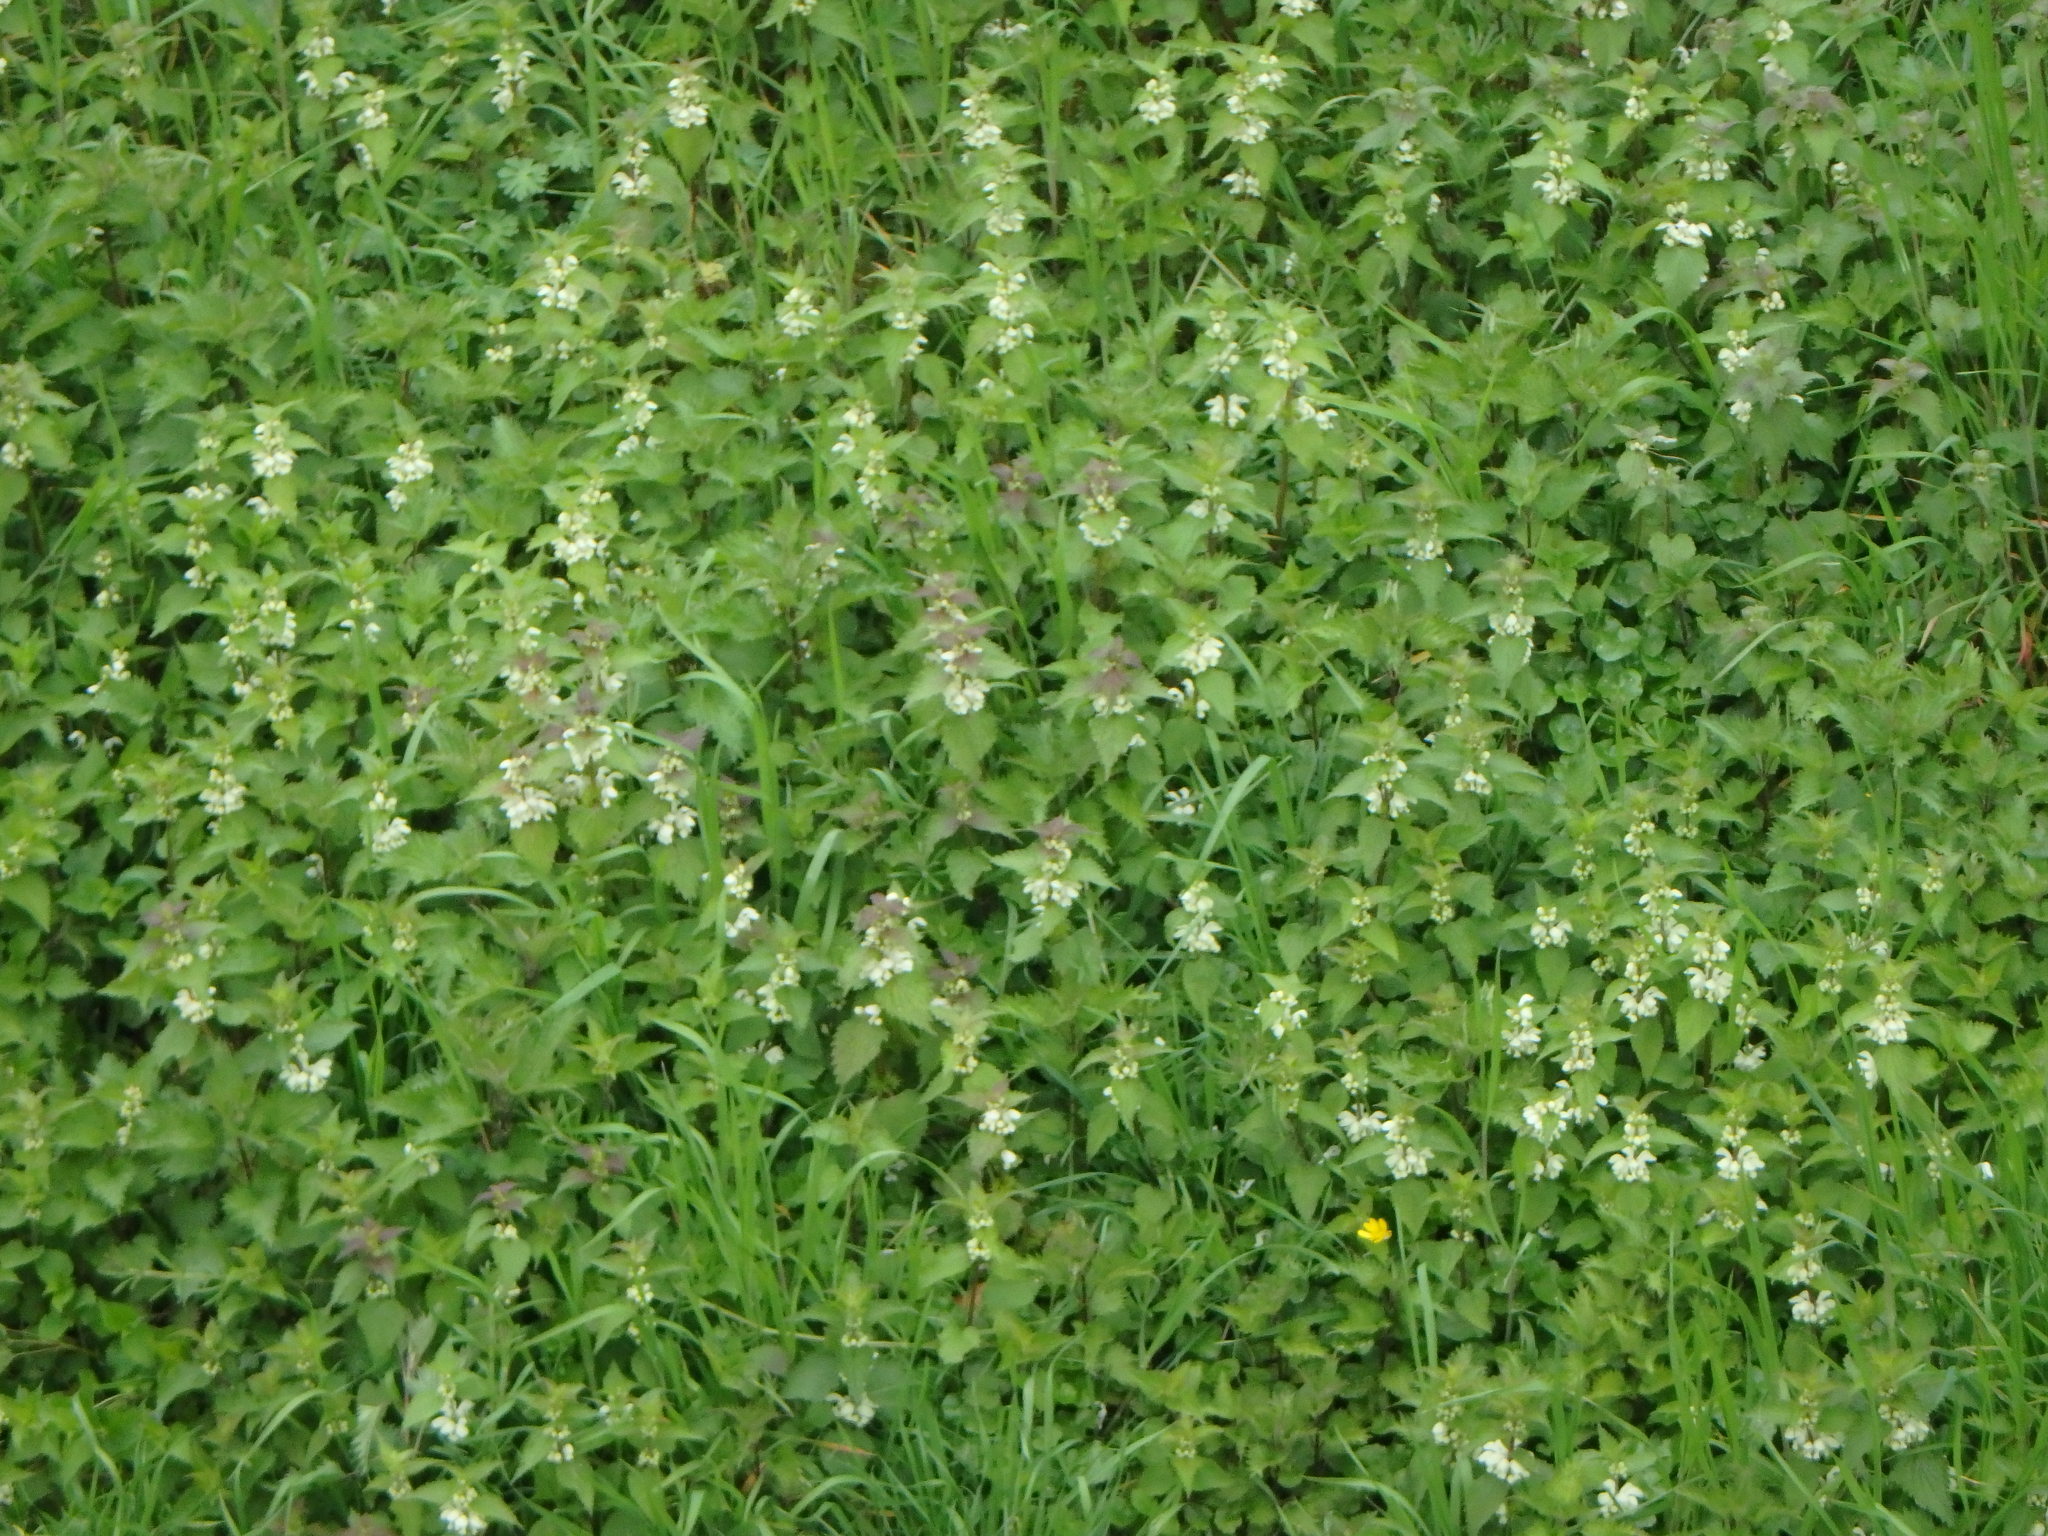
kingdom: Plantae
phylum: Tracheophyta
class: Magnoliopsida
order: Lamiales
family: Lamiaceae
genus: Lamium
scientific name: Lamium album
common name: White dead-nettle
